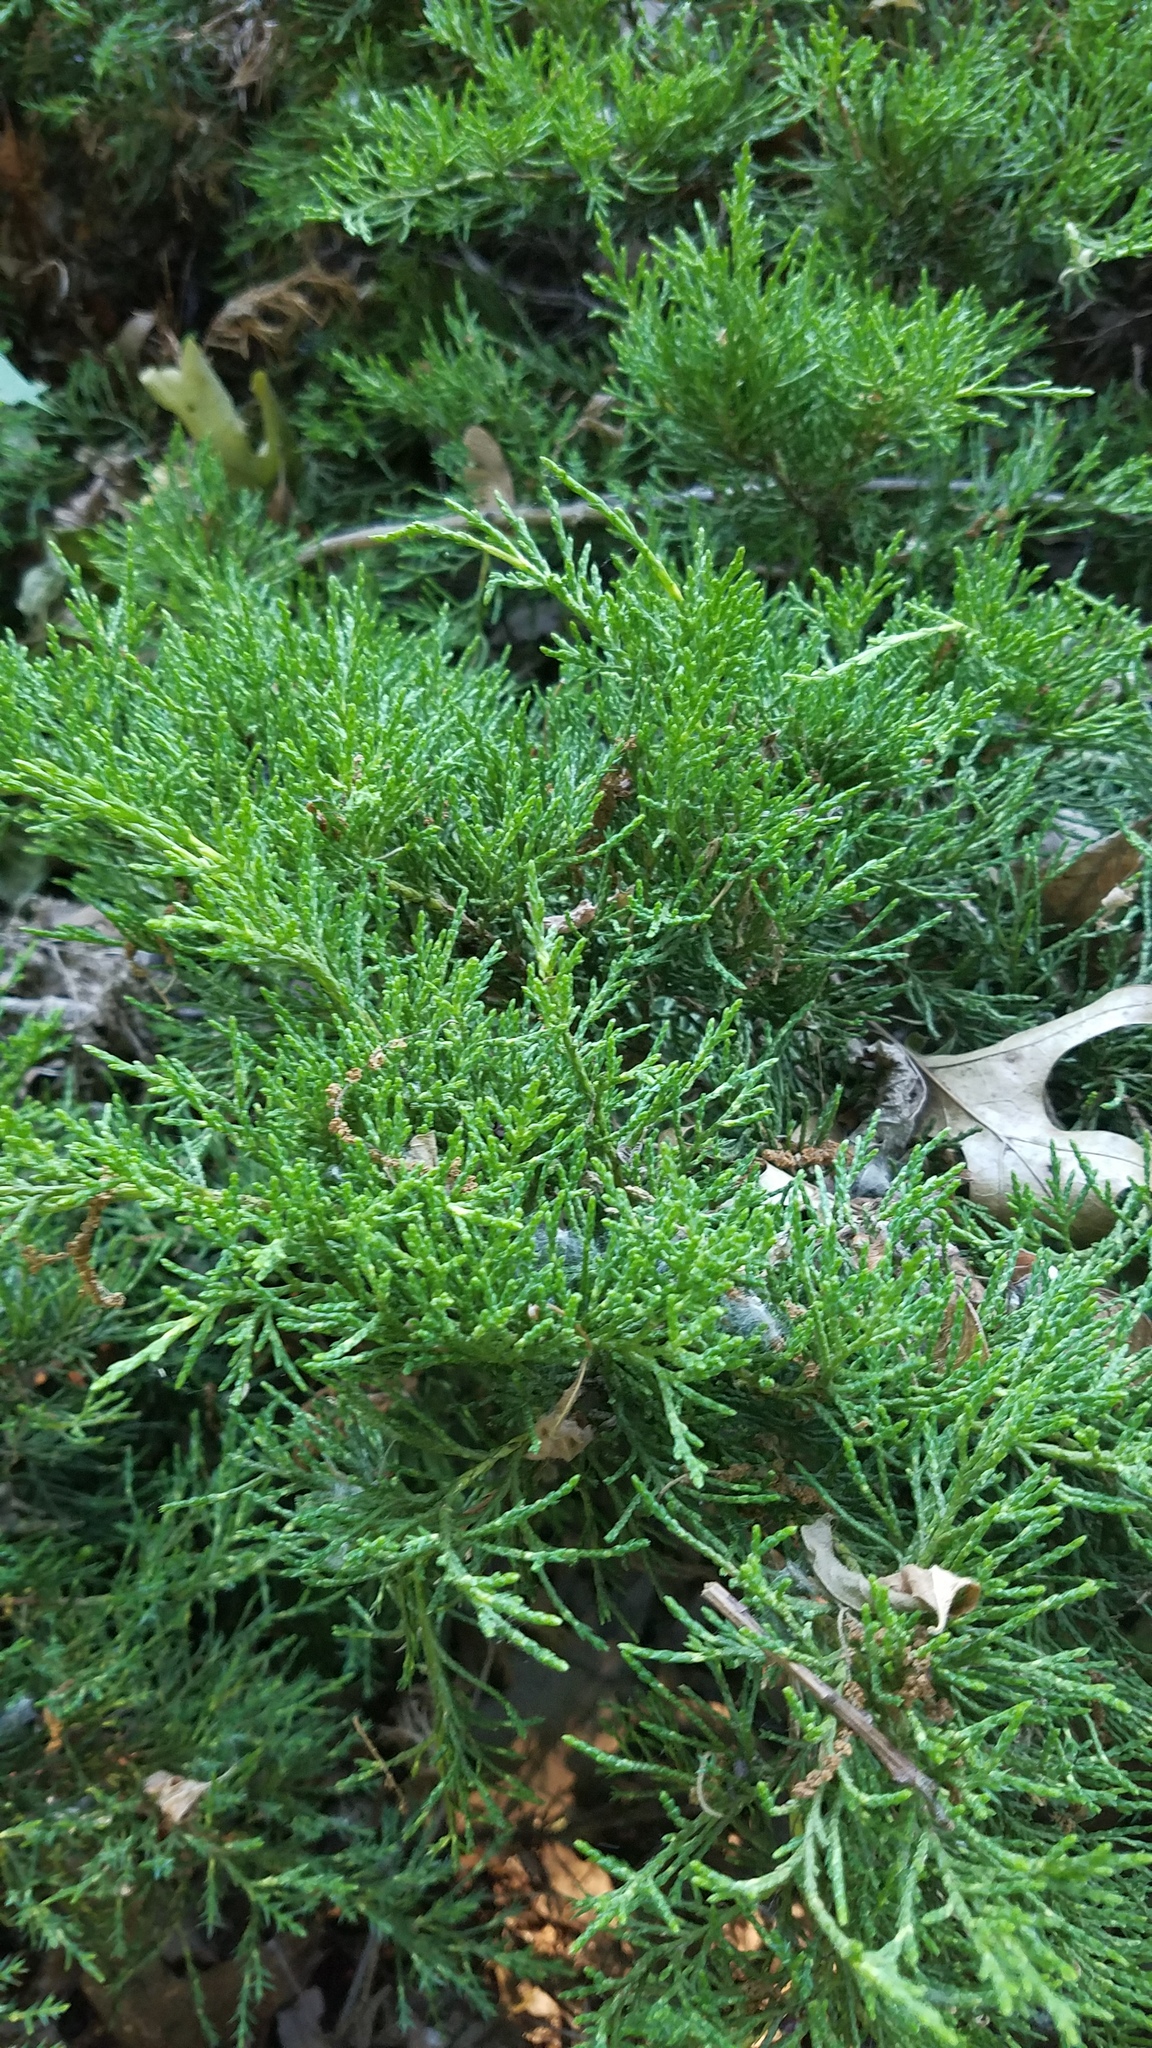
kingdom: Plantae
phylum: Tracheophyta
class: Pinopsida
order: Pinales
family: Cupressaceae
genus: Juniperus
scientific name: Juniperus communis
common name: Common juniper
